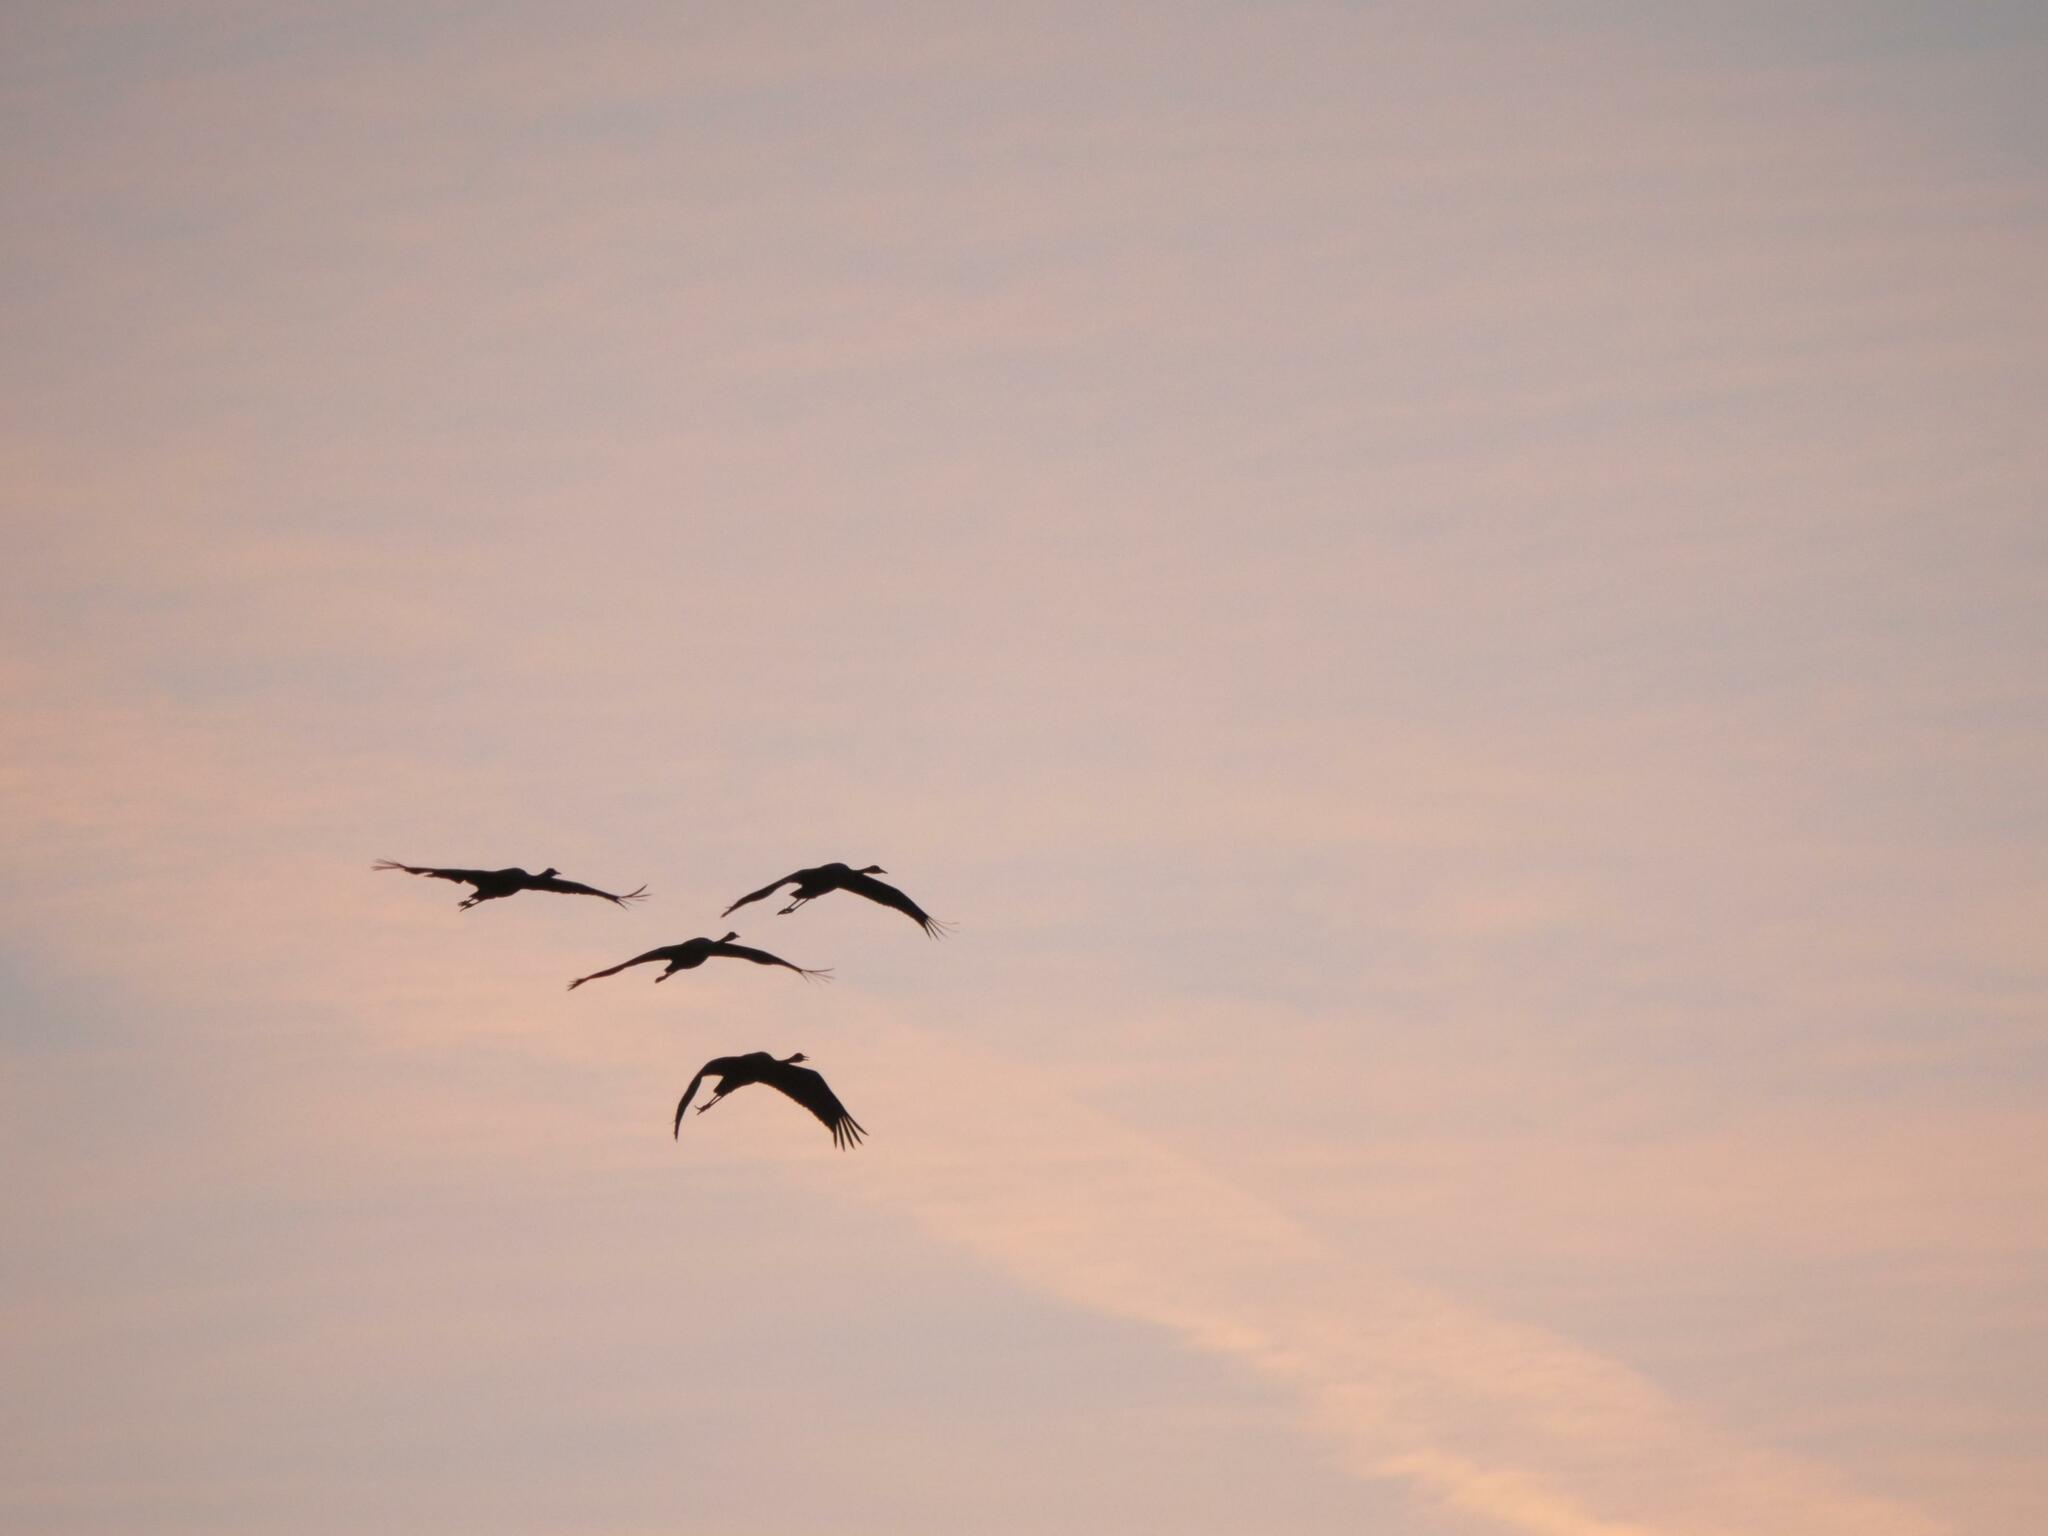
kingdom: Animalia
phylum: Chordata
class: Aves
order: Gruiformes
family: Gruidae
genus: Grus
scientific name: Grus grus
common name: Common crane
